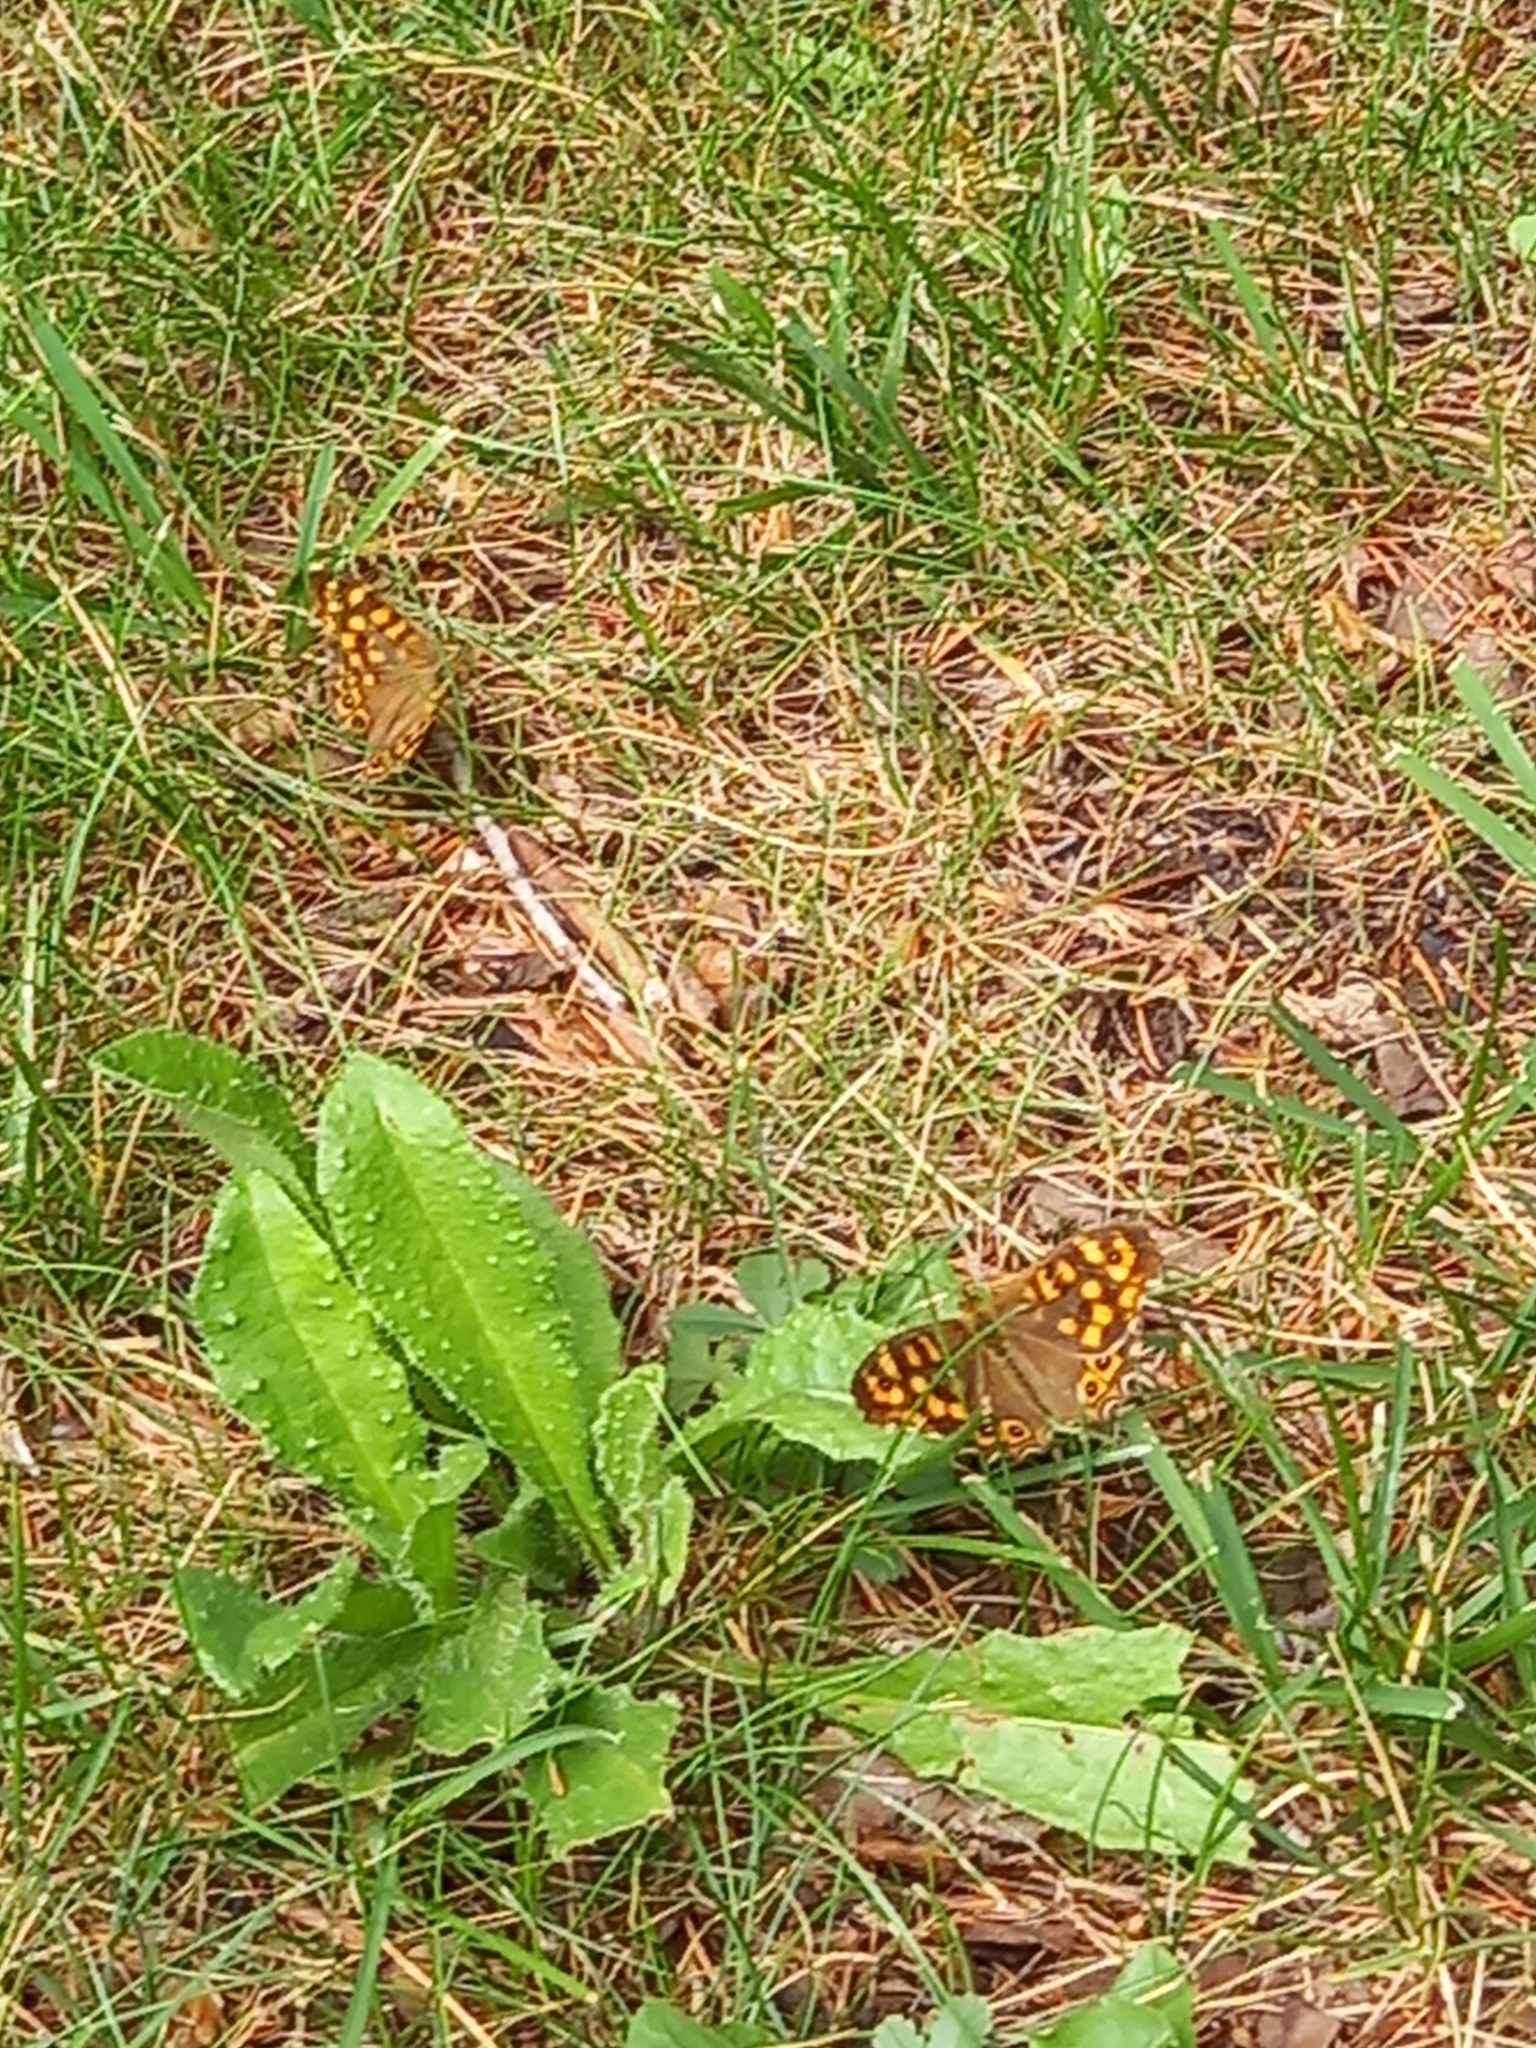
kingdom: Animalia
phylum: Arthropoda
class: Insecta
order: Lepidoptera
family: Nymphalidae
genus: Pararge
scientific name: Pararge aegeria
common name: Speckled wood
